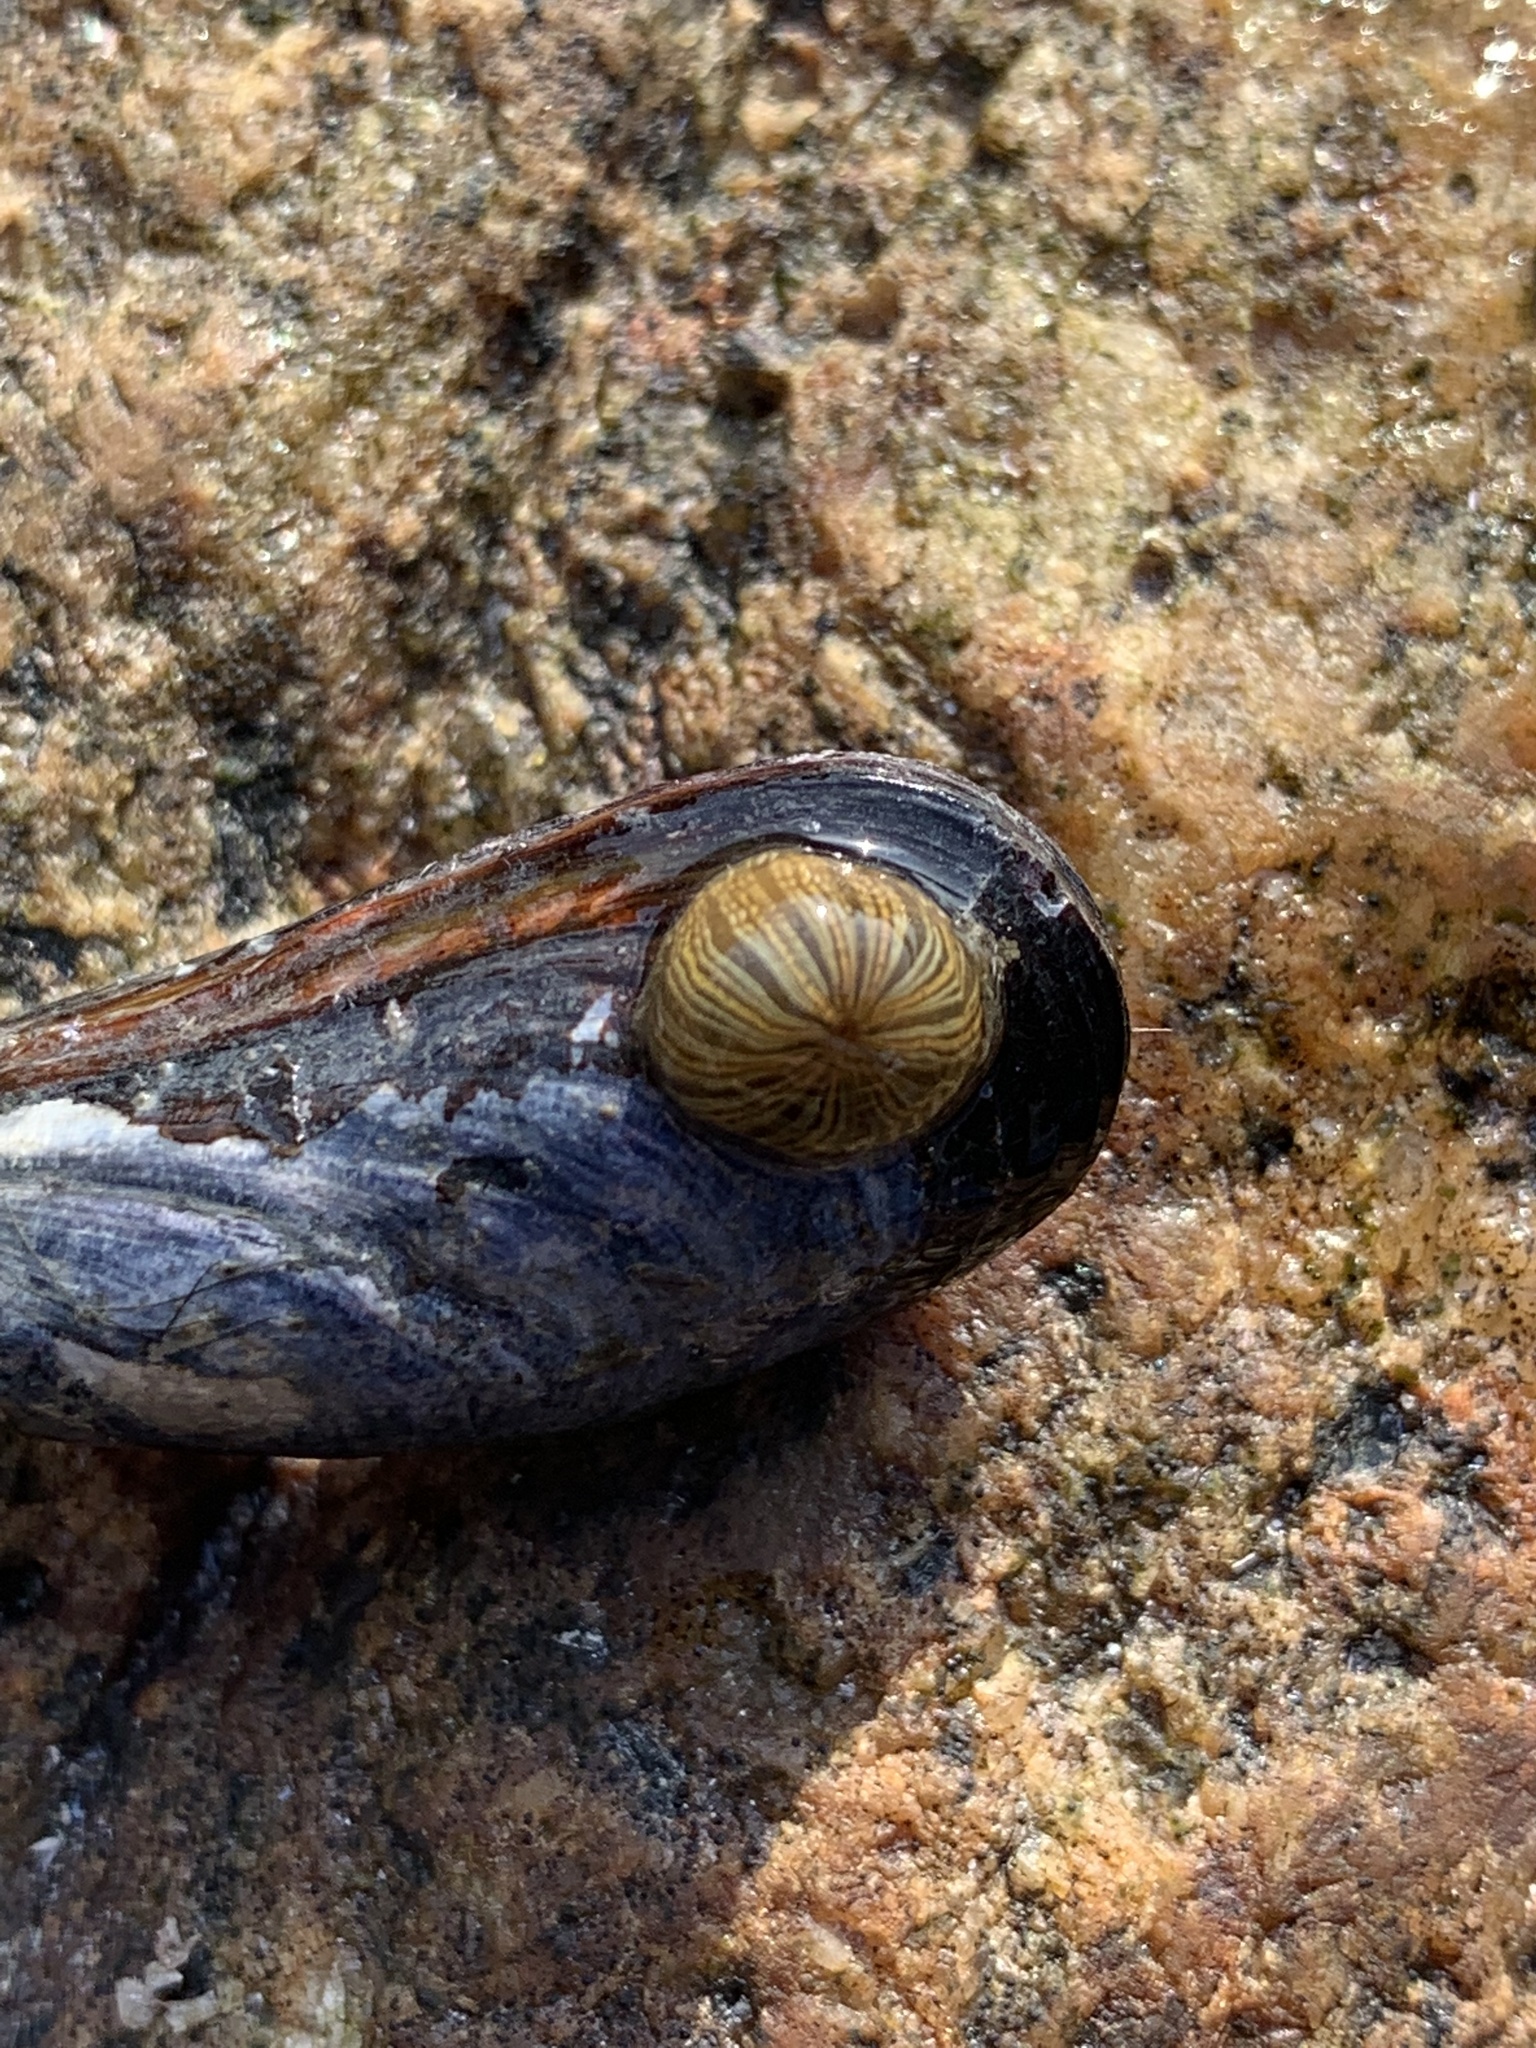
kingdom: Animalia
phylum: Cnidaria
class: Anthozoa
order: Actiniaria
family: Diadumenidae
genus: Diadumene
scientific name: Diadumene lineata
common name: Orange-striped anemone
